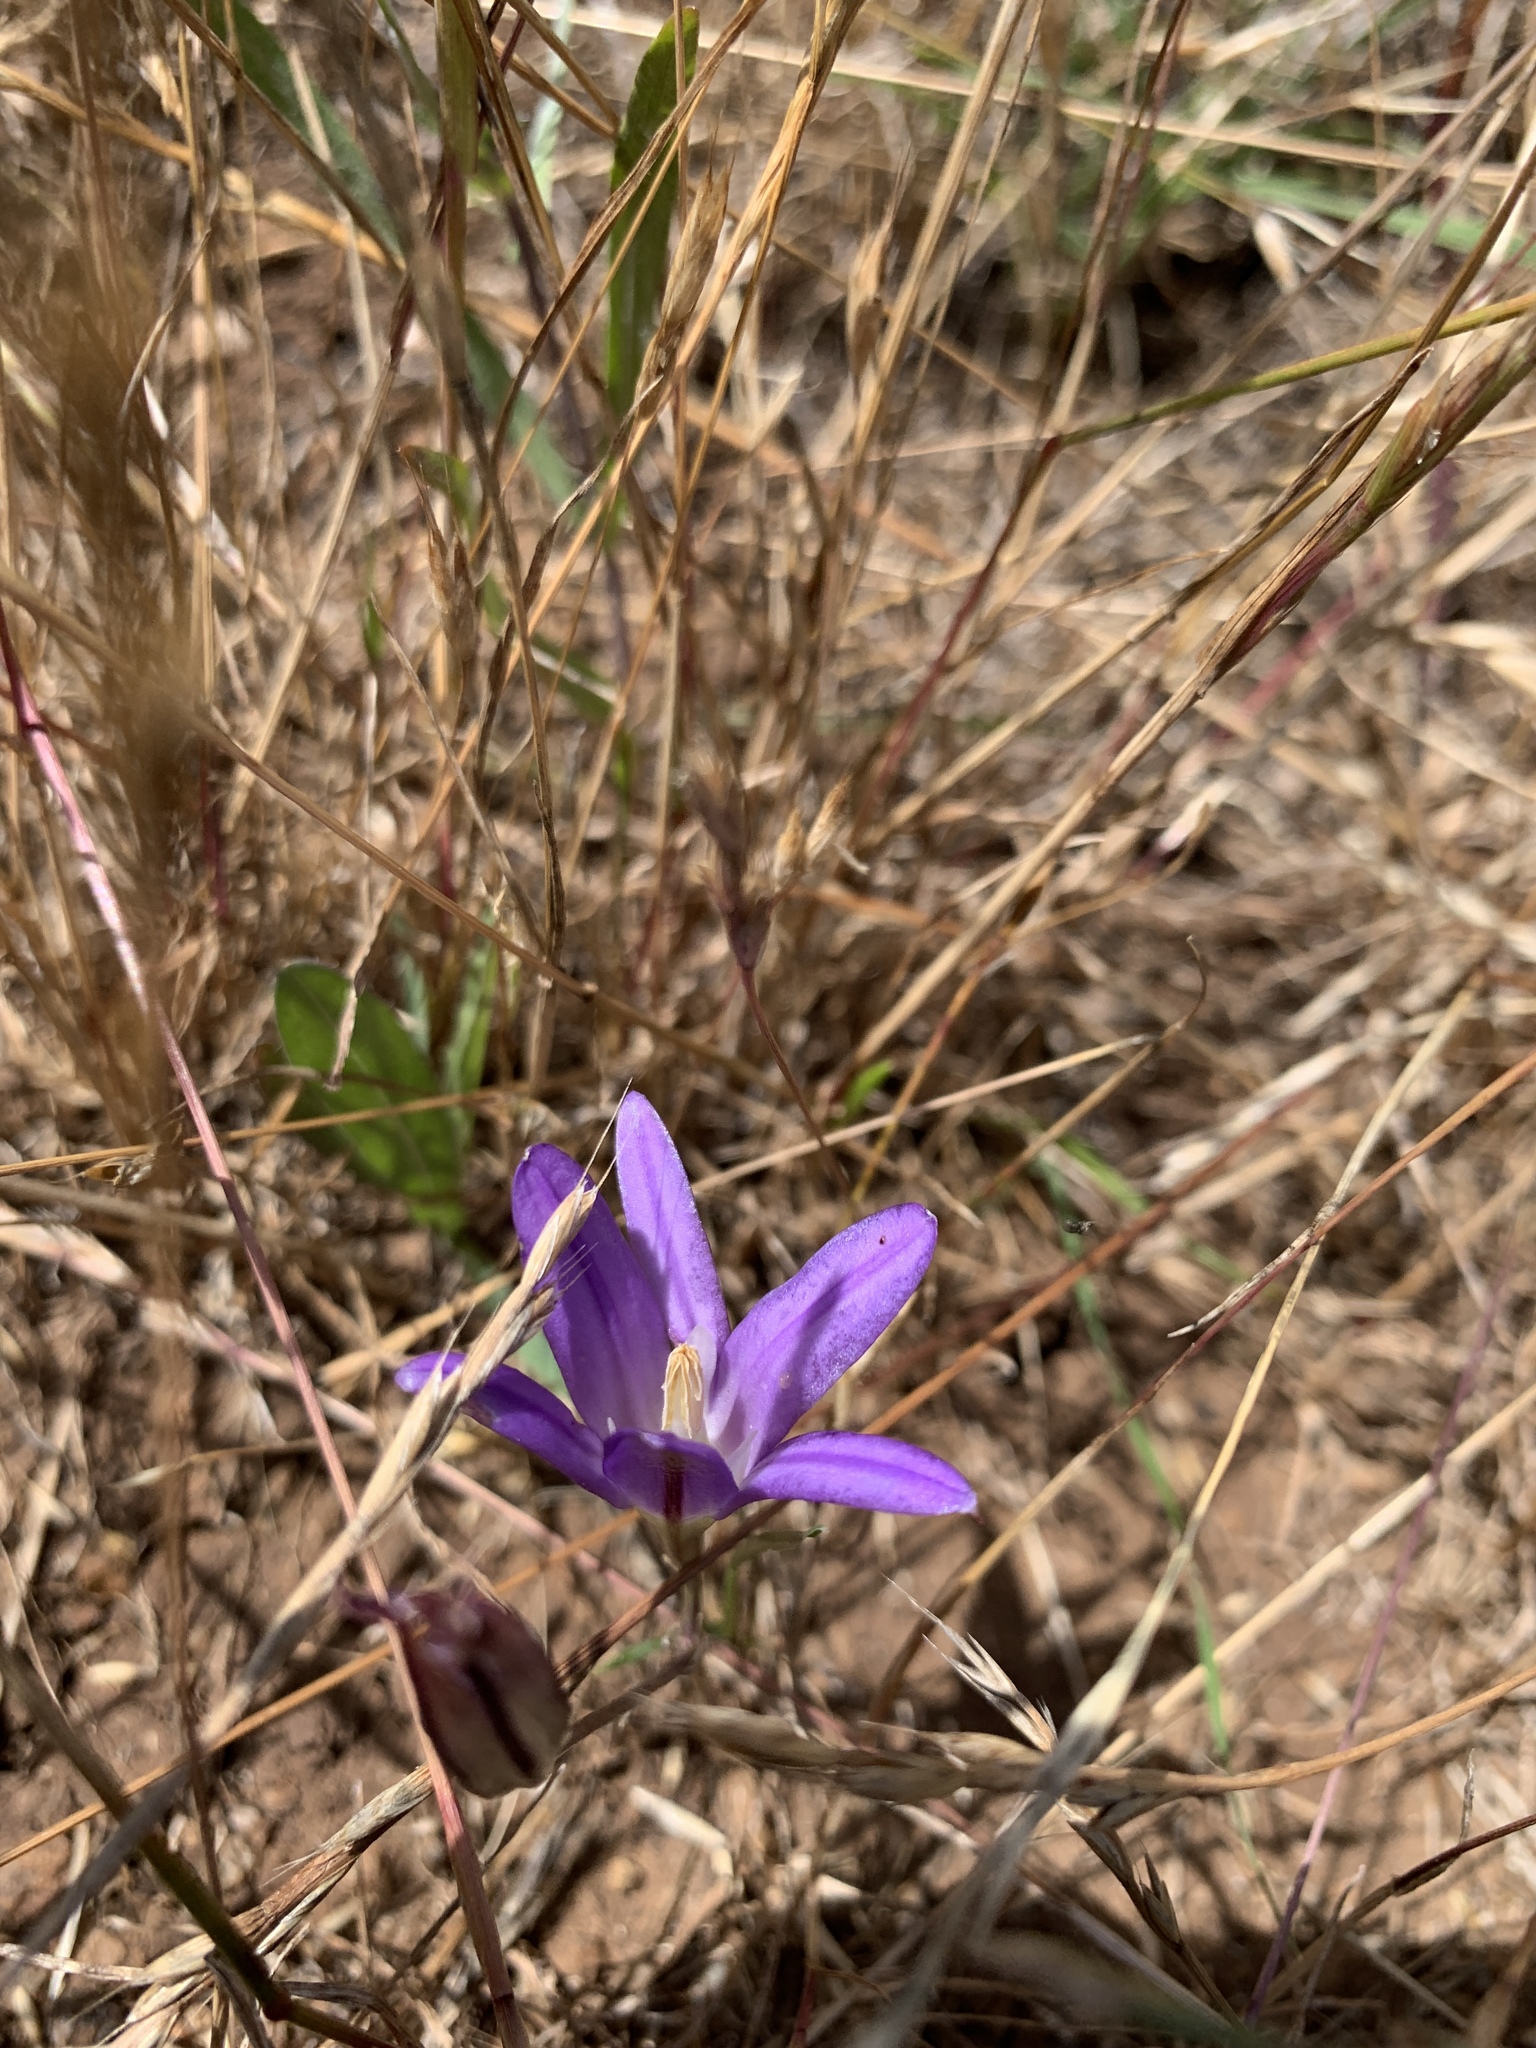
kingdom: Plantae
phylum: Tracheophyta
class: Liliopsida
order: Asparagales
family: Asparagaceae
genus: Brodiaea
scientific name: Brodiaea elegans
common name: Elegant cluster-lily
